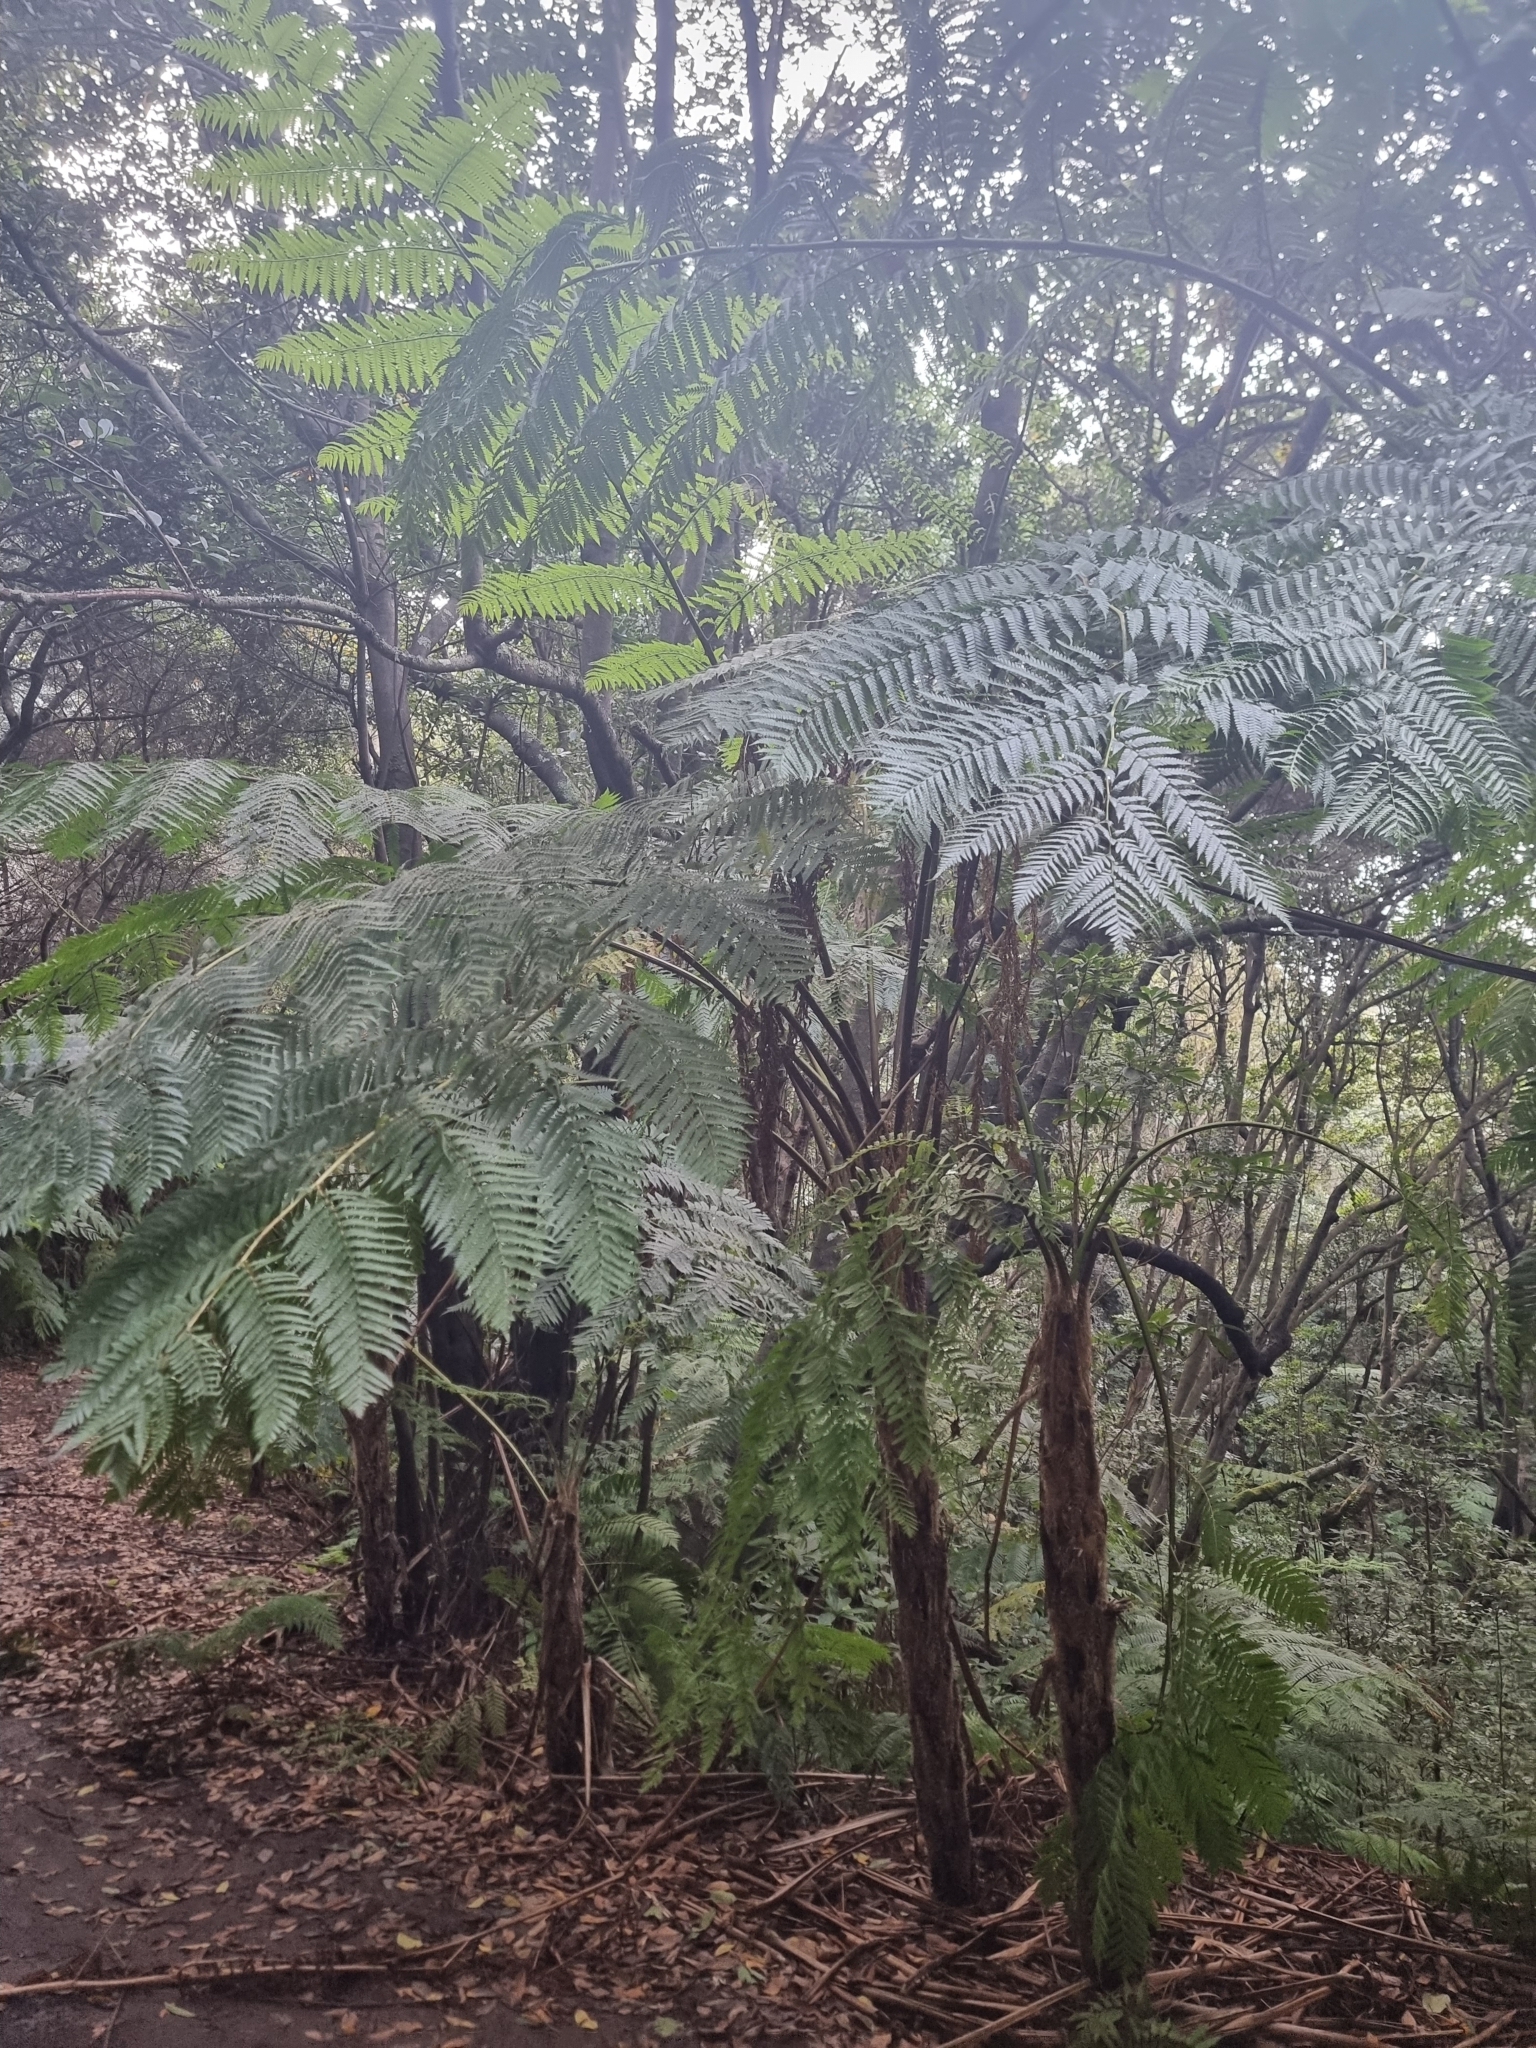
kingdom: Plantae
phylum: Tracheophyta
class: Polypodiopsida
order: Cyatheales
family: Cyatheaceae
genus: Sphaeropteris
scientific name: Sphaeropteris cooperi
